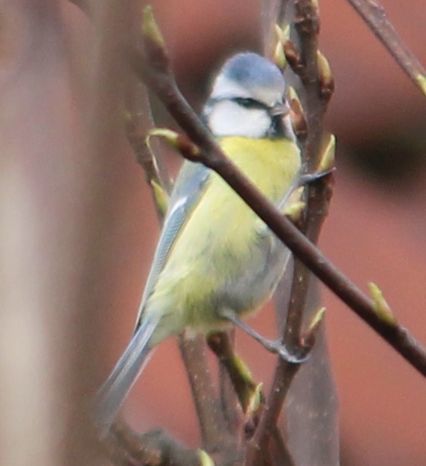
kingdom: Animalia
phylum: Chordata
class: Aves
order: Passeriformes
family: Paridae
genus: Cyanistes
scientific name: Cyanistes caeruleus
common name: Eurasian blue tit
